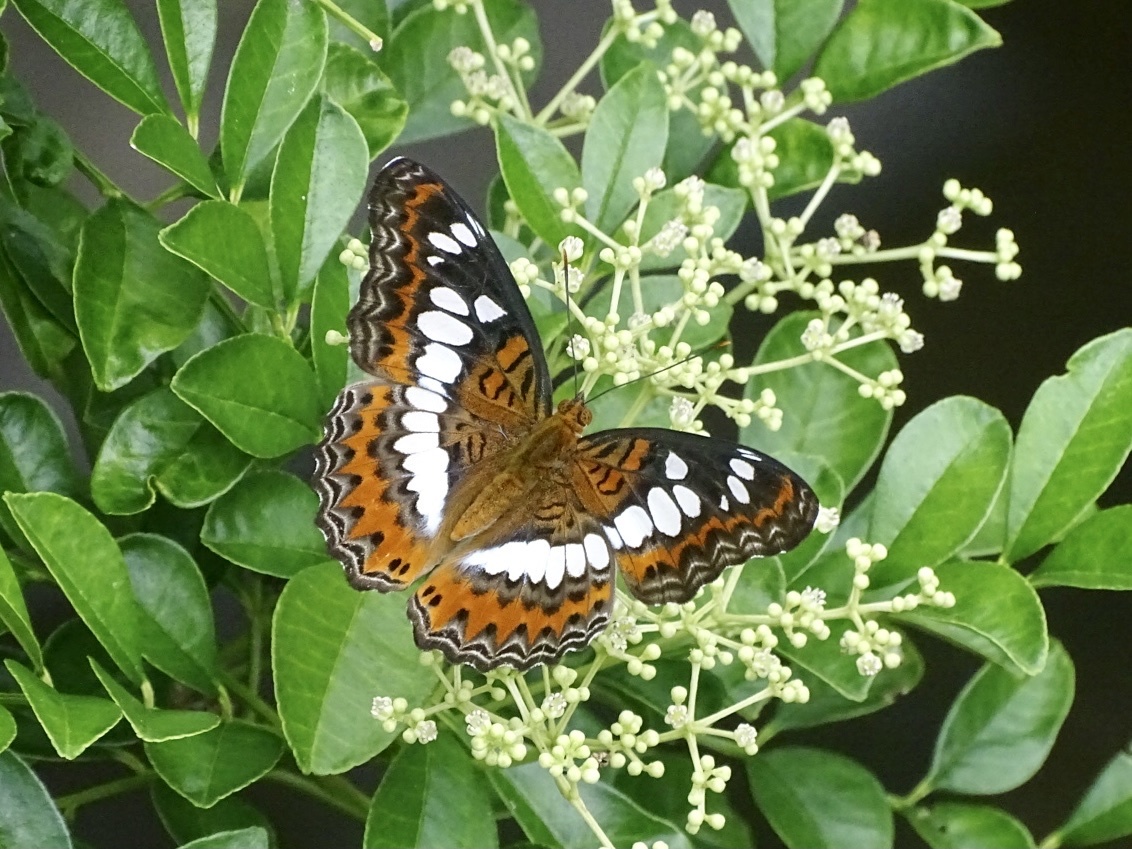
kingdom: Animalia
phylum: Arthropoda
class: Insecta
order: Lepidoptera
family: Nymphalidae
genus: Limenitis
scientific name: Limenitis Moduza procris
